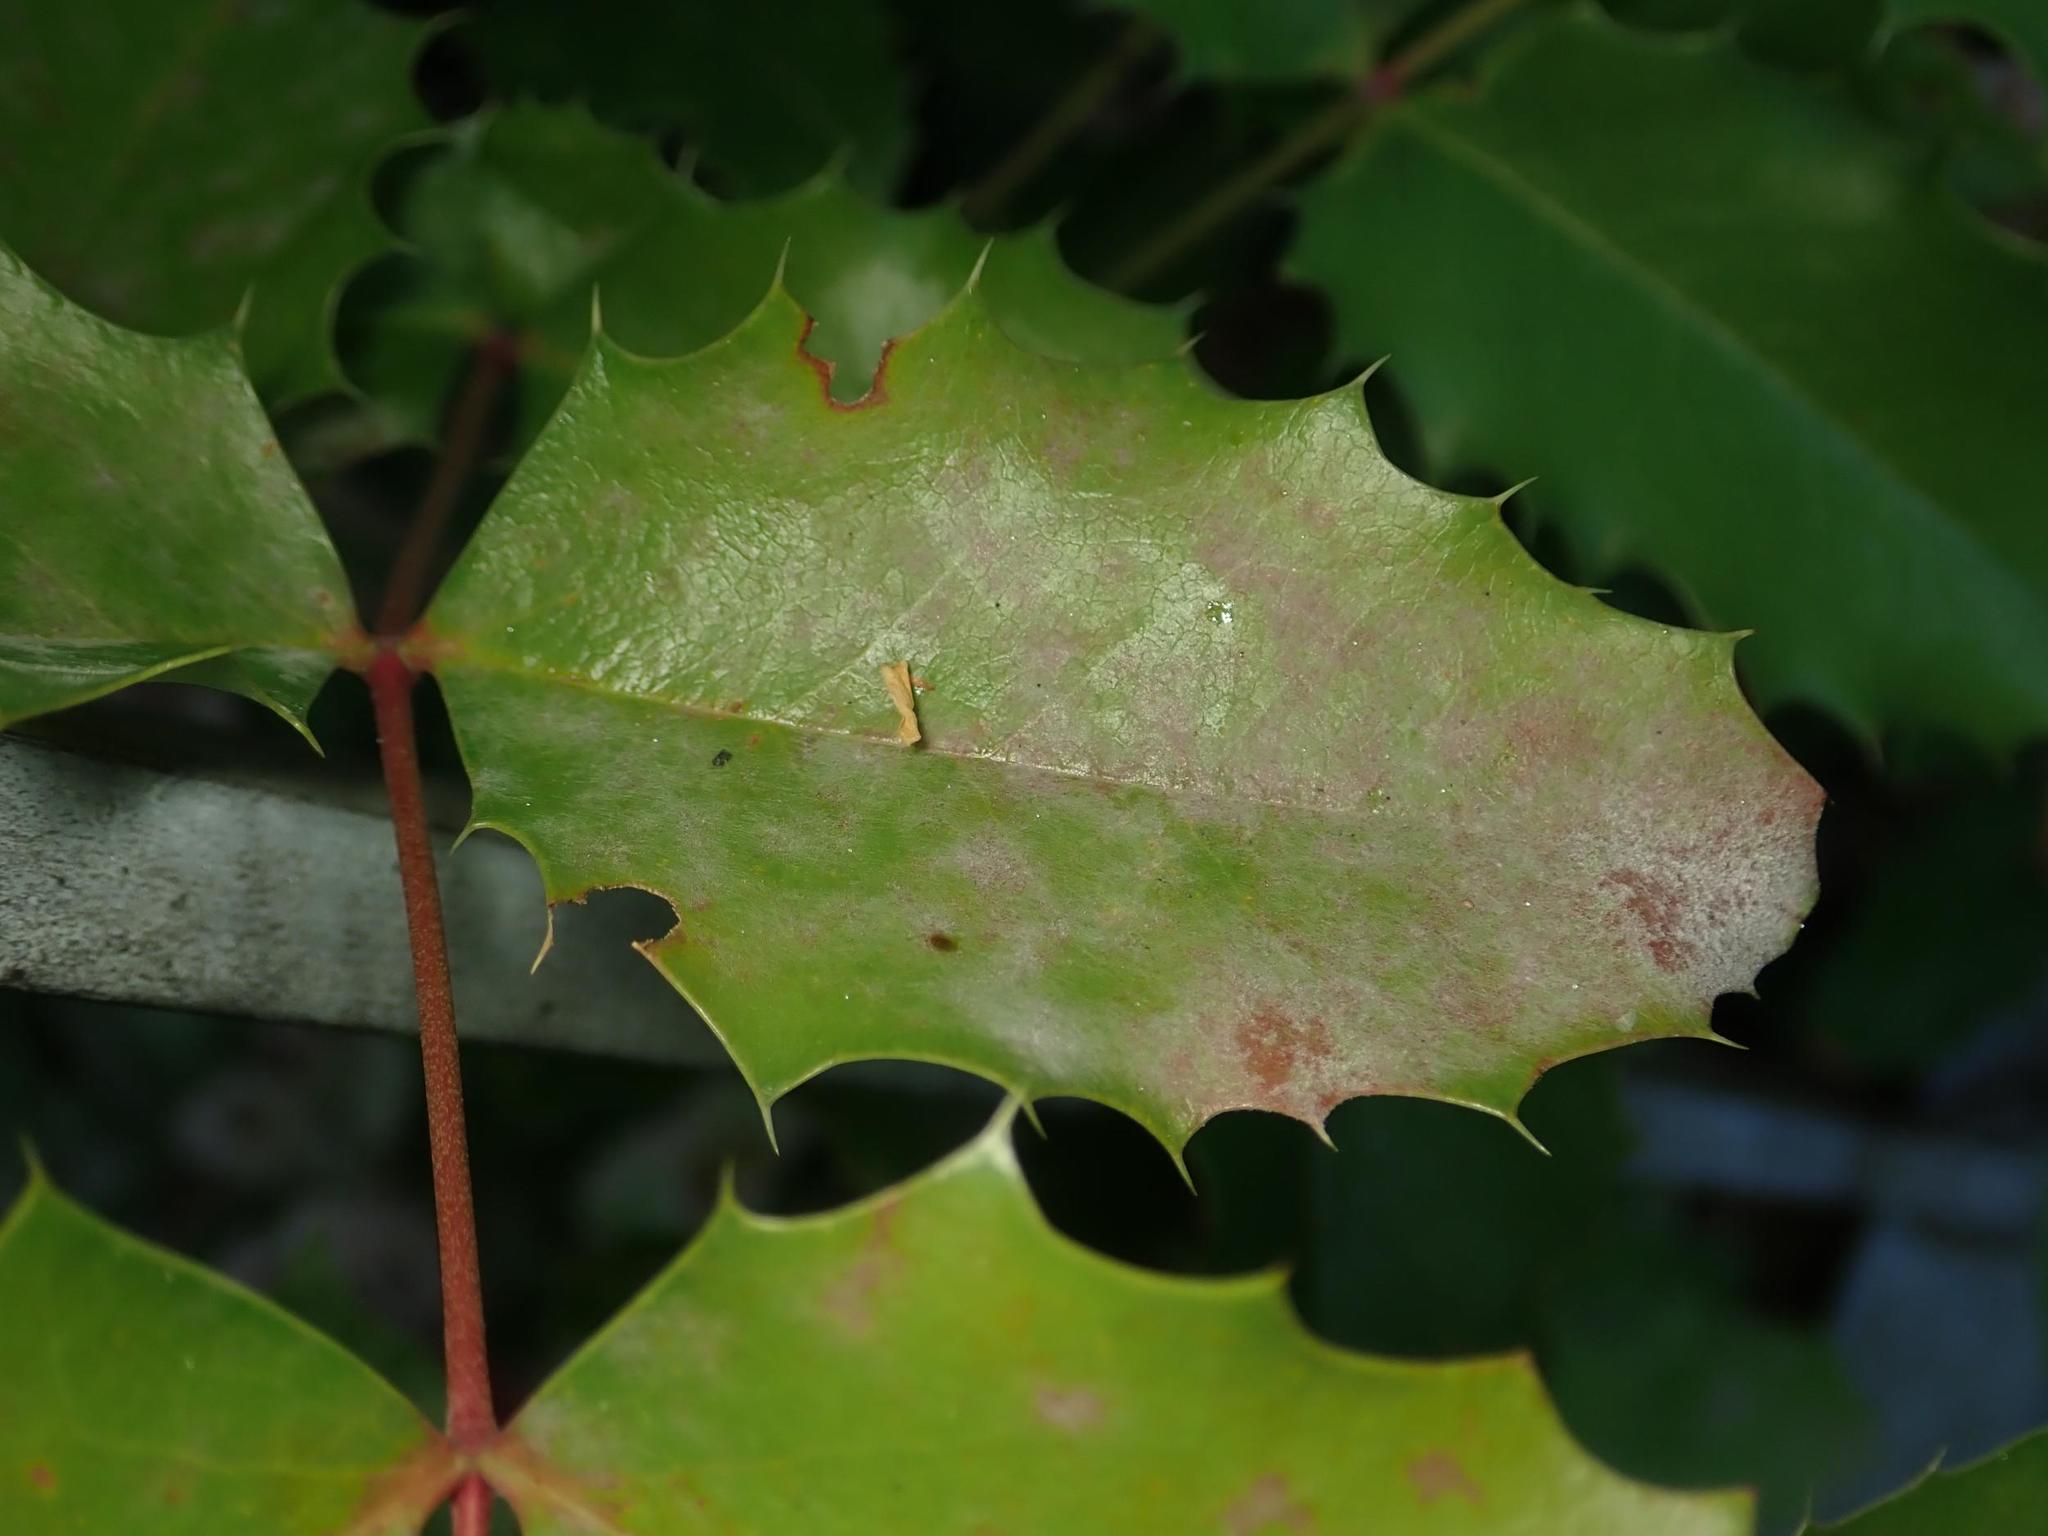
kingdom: Fungi
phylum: Ascomycota
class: Leotiomycetes
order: Helotiales
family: Erysiphaceae
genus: Erysiphe
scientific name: Erysiphe berberidis
